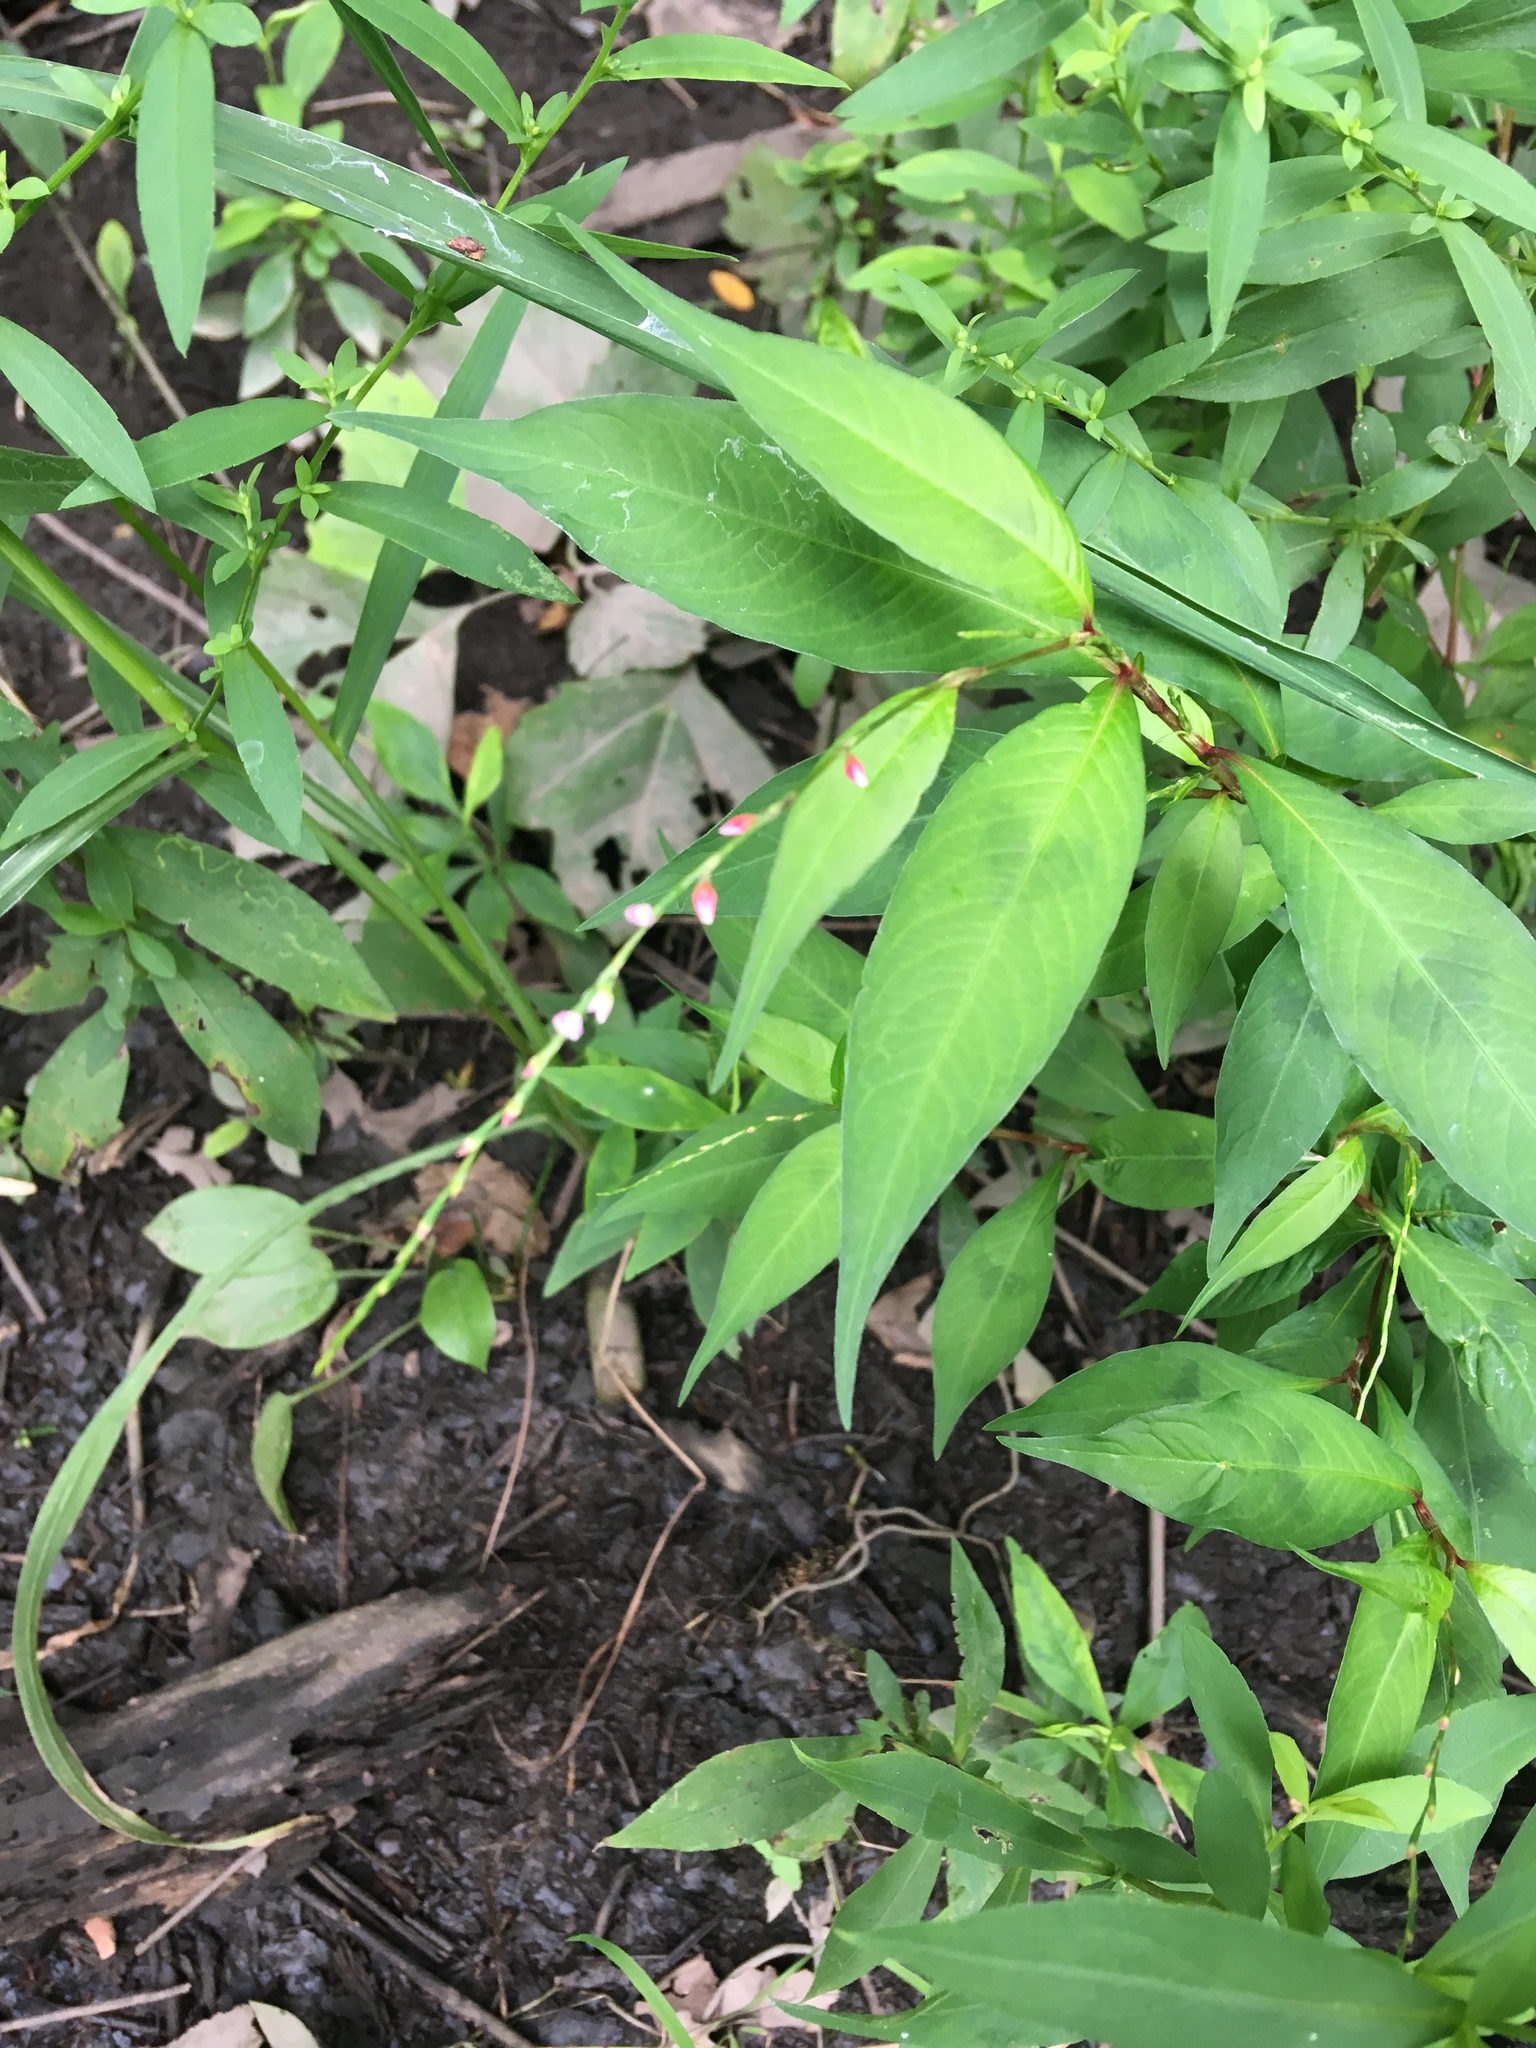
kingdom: Plantae
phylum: Tracheophyta
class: Magnoliopsida
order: Caryophyllales
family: Polygonaceae
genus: Persicaria
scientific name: Persicaria hydropiper
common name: Water-pepper
